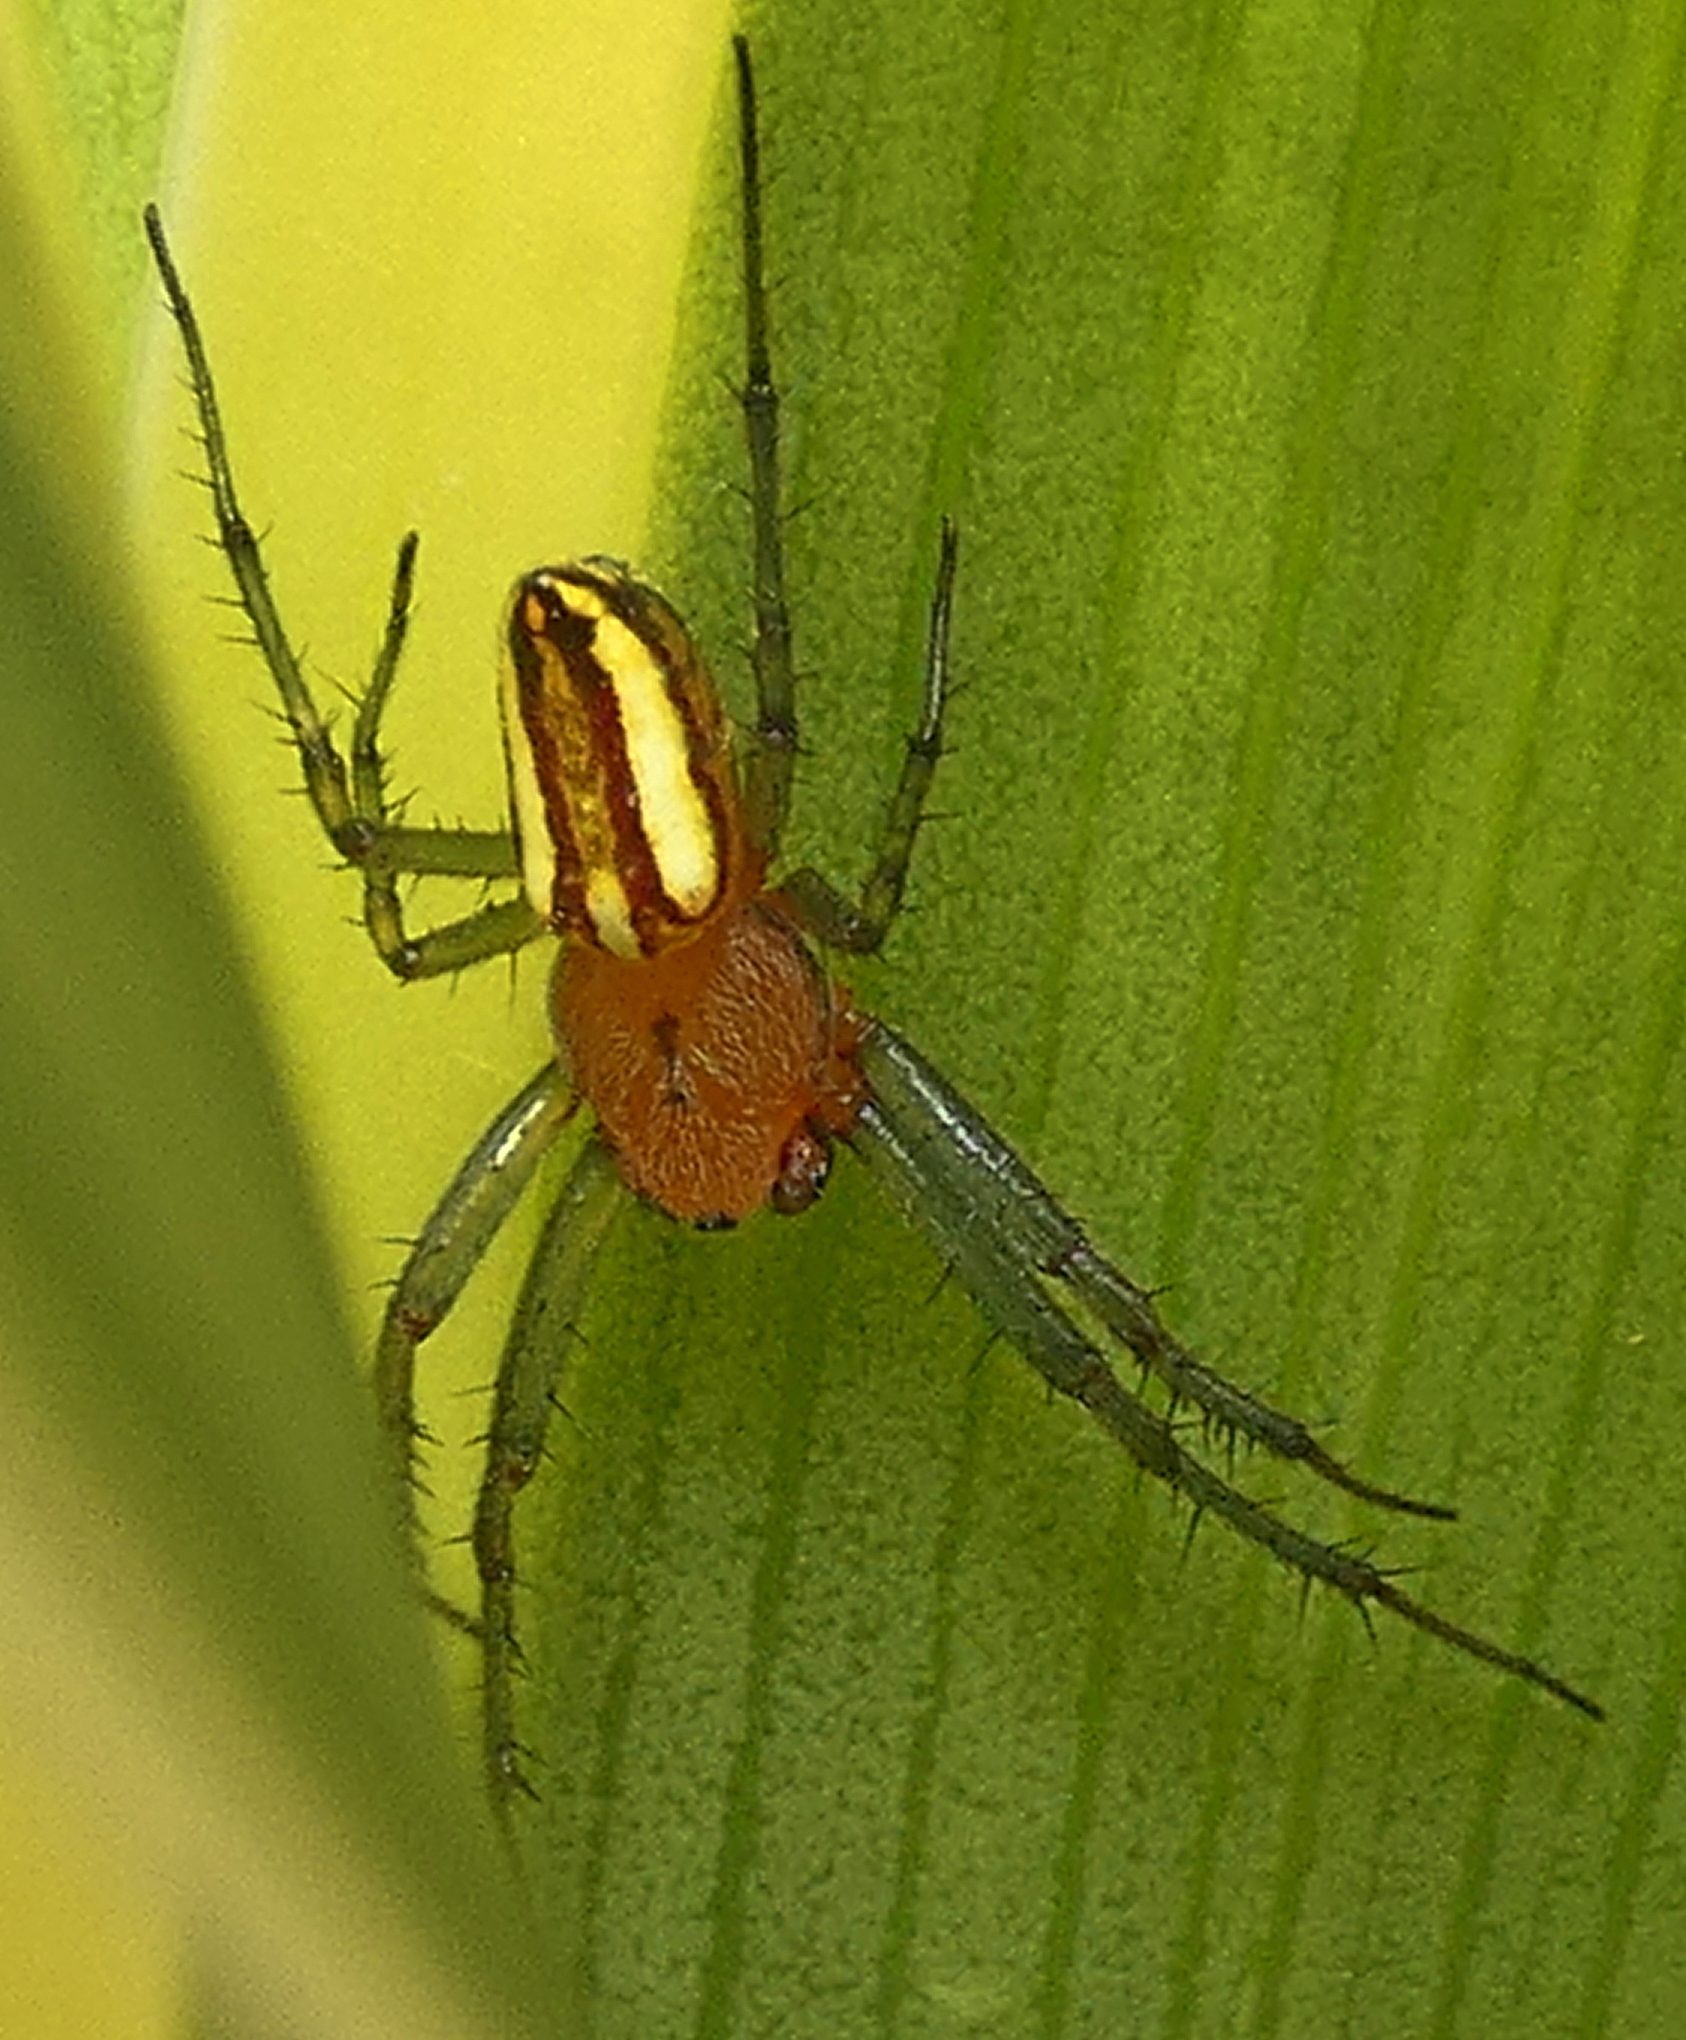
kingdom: Animalia
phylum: Arthropoda
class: Arachnida
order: Araneae
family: Araneidae
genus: Alpaida
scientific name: Alpaida bicornuta
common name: Orb weavers
